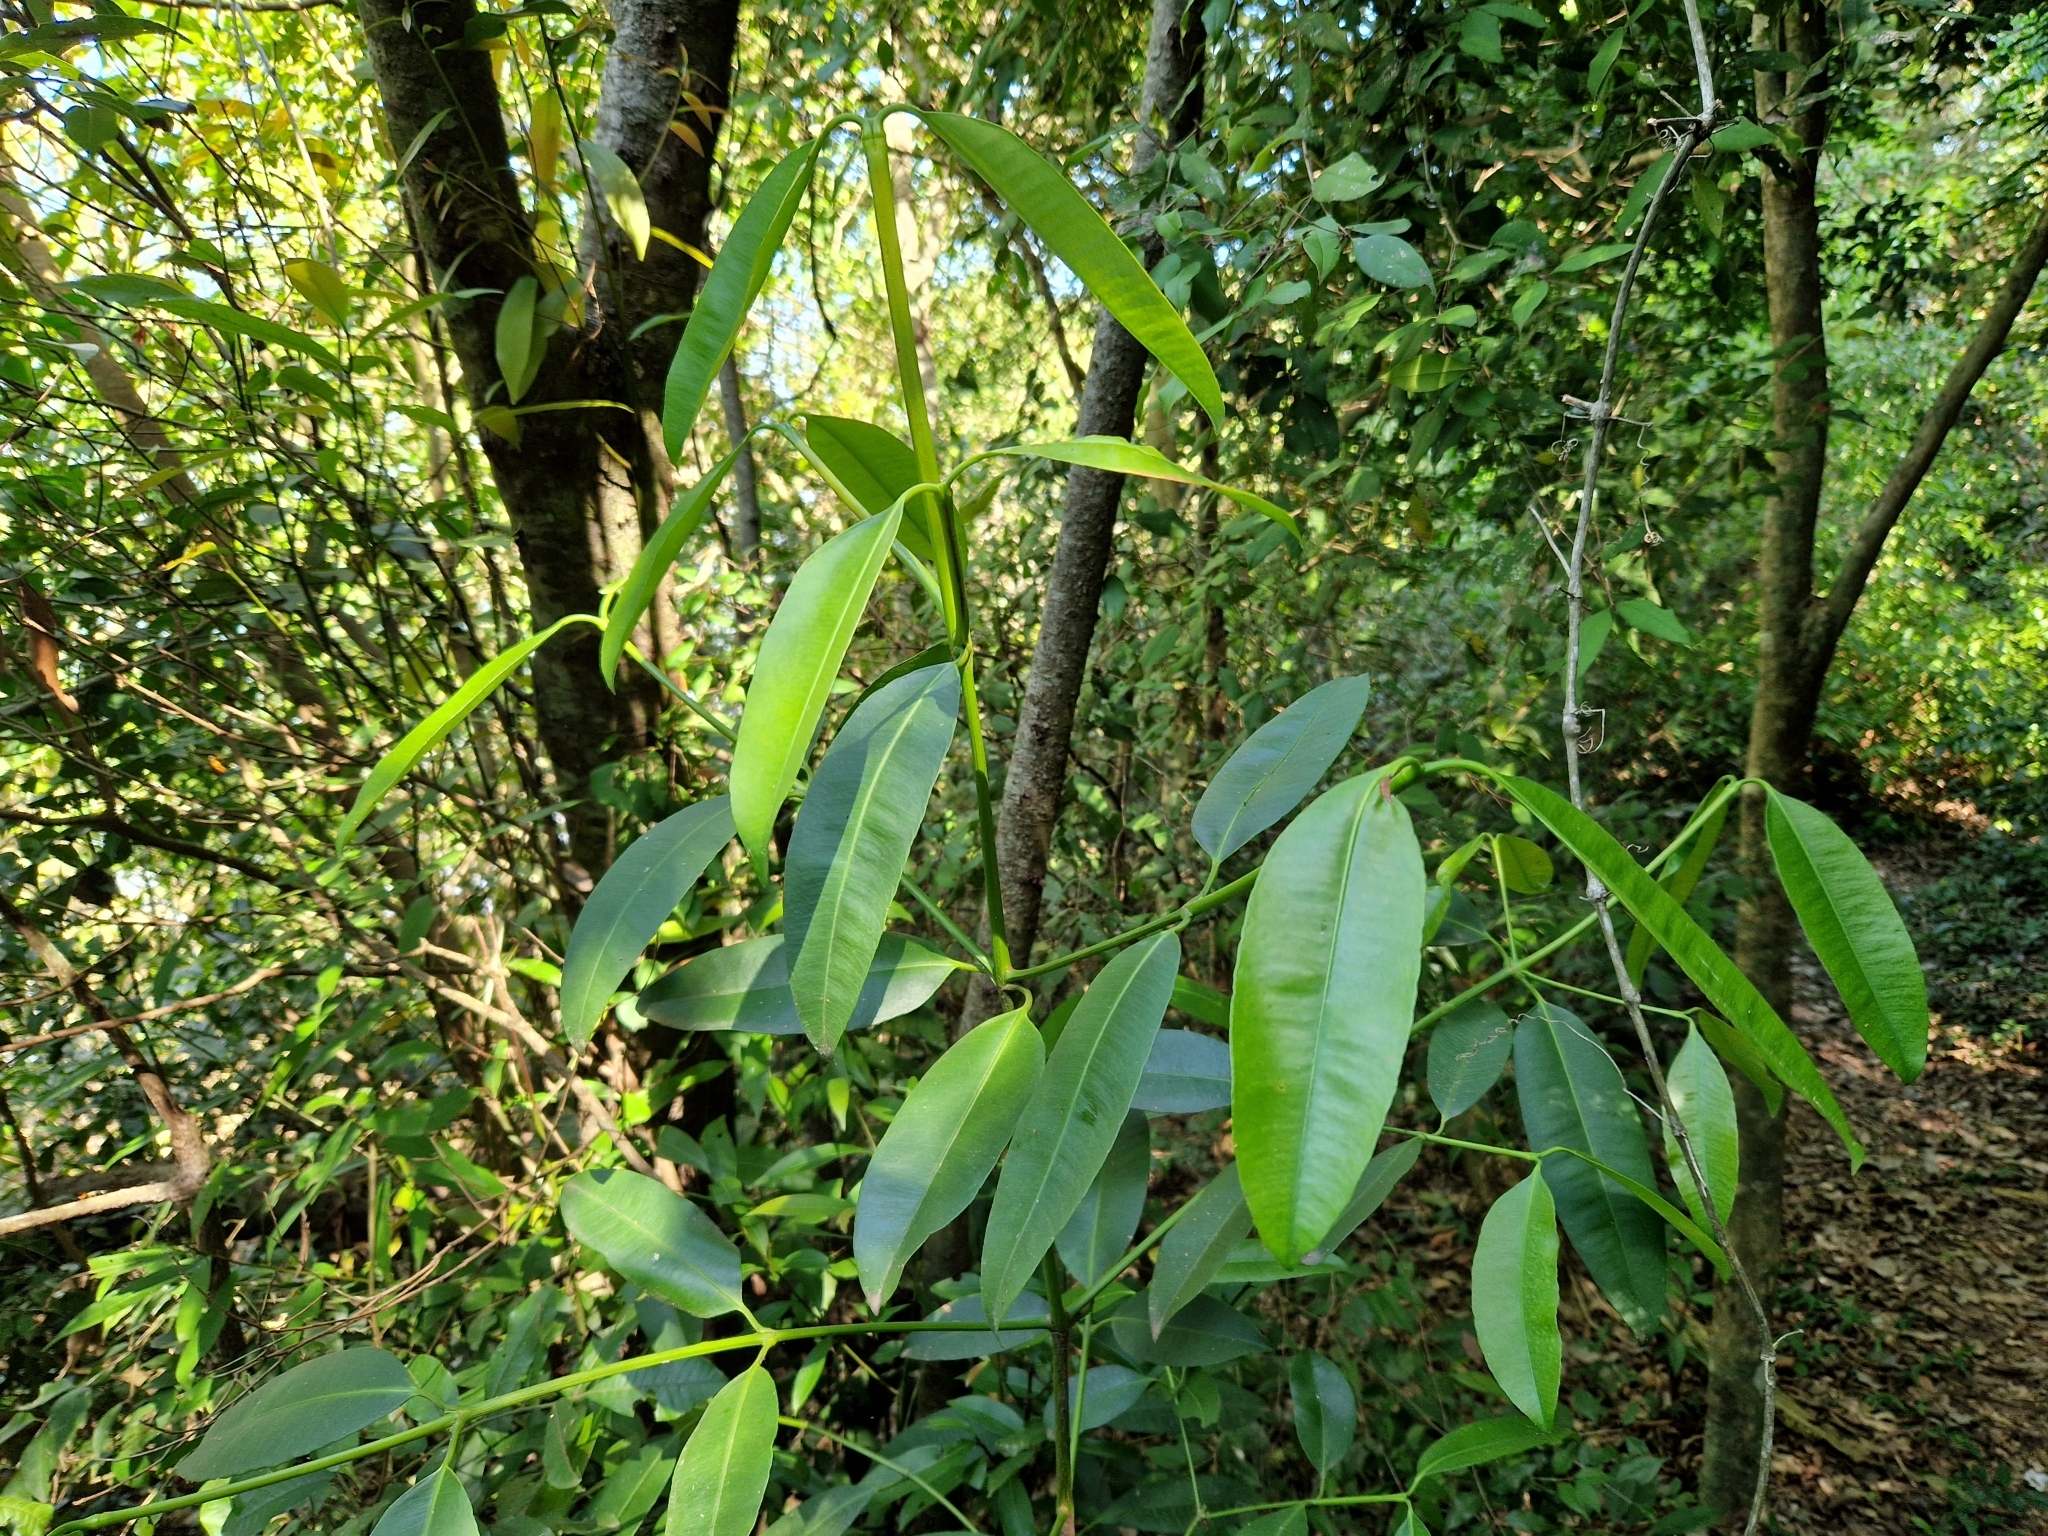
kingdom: Plantae
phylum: Tracheophyta
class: Magnoliopsida
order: Malpighiales
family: Clusiaceae
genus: Garcinia
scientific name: Garcinia guacopary
